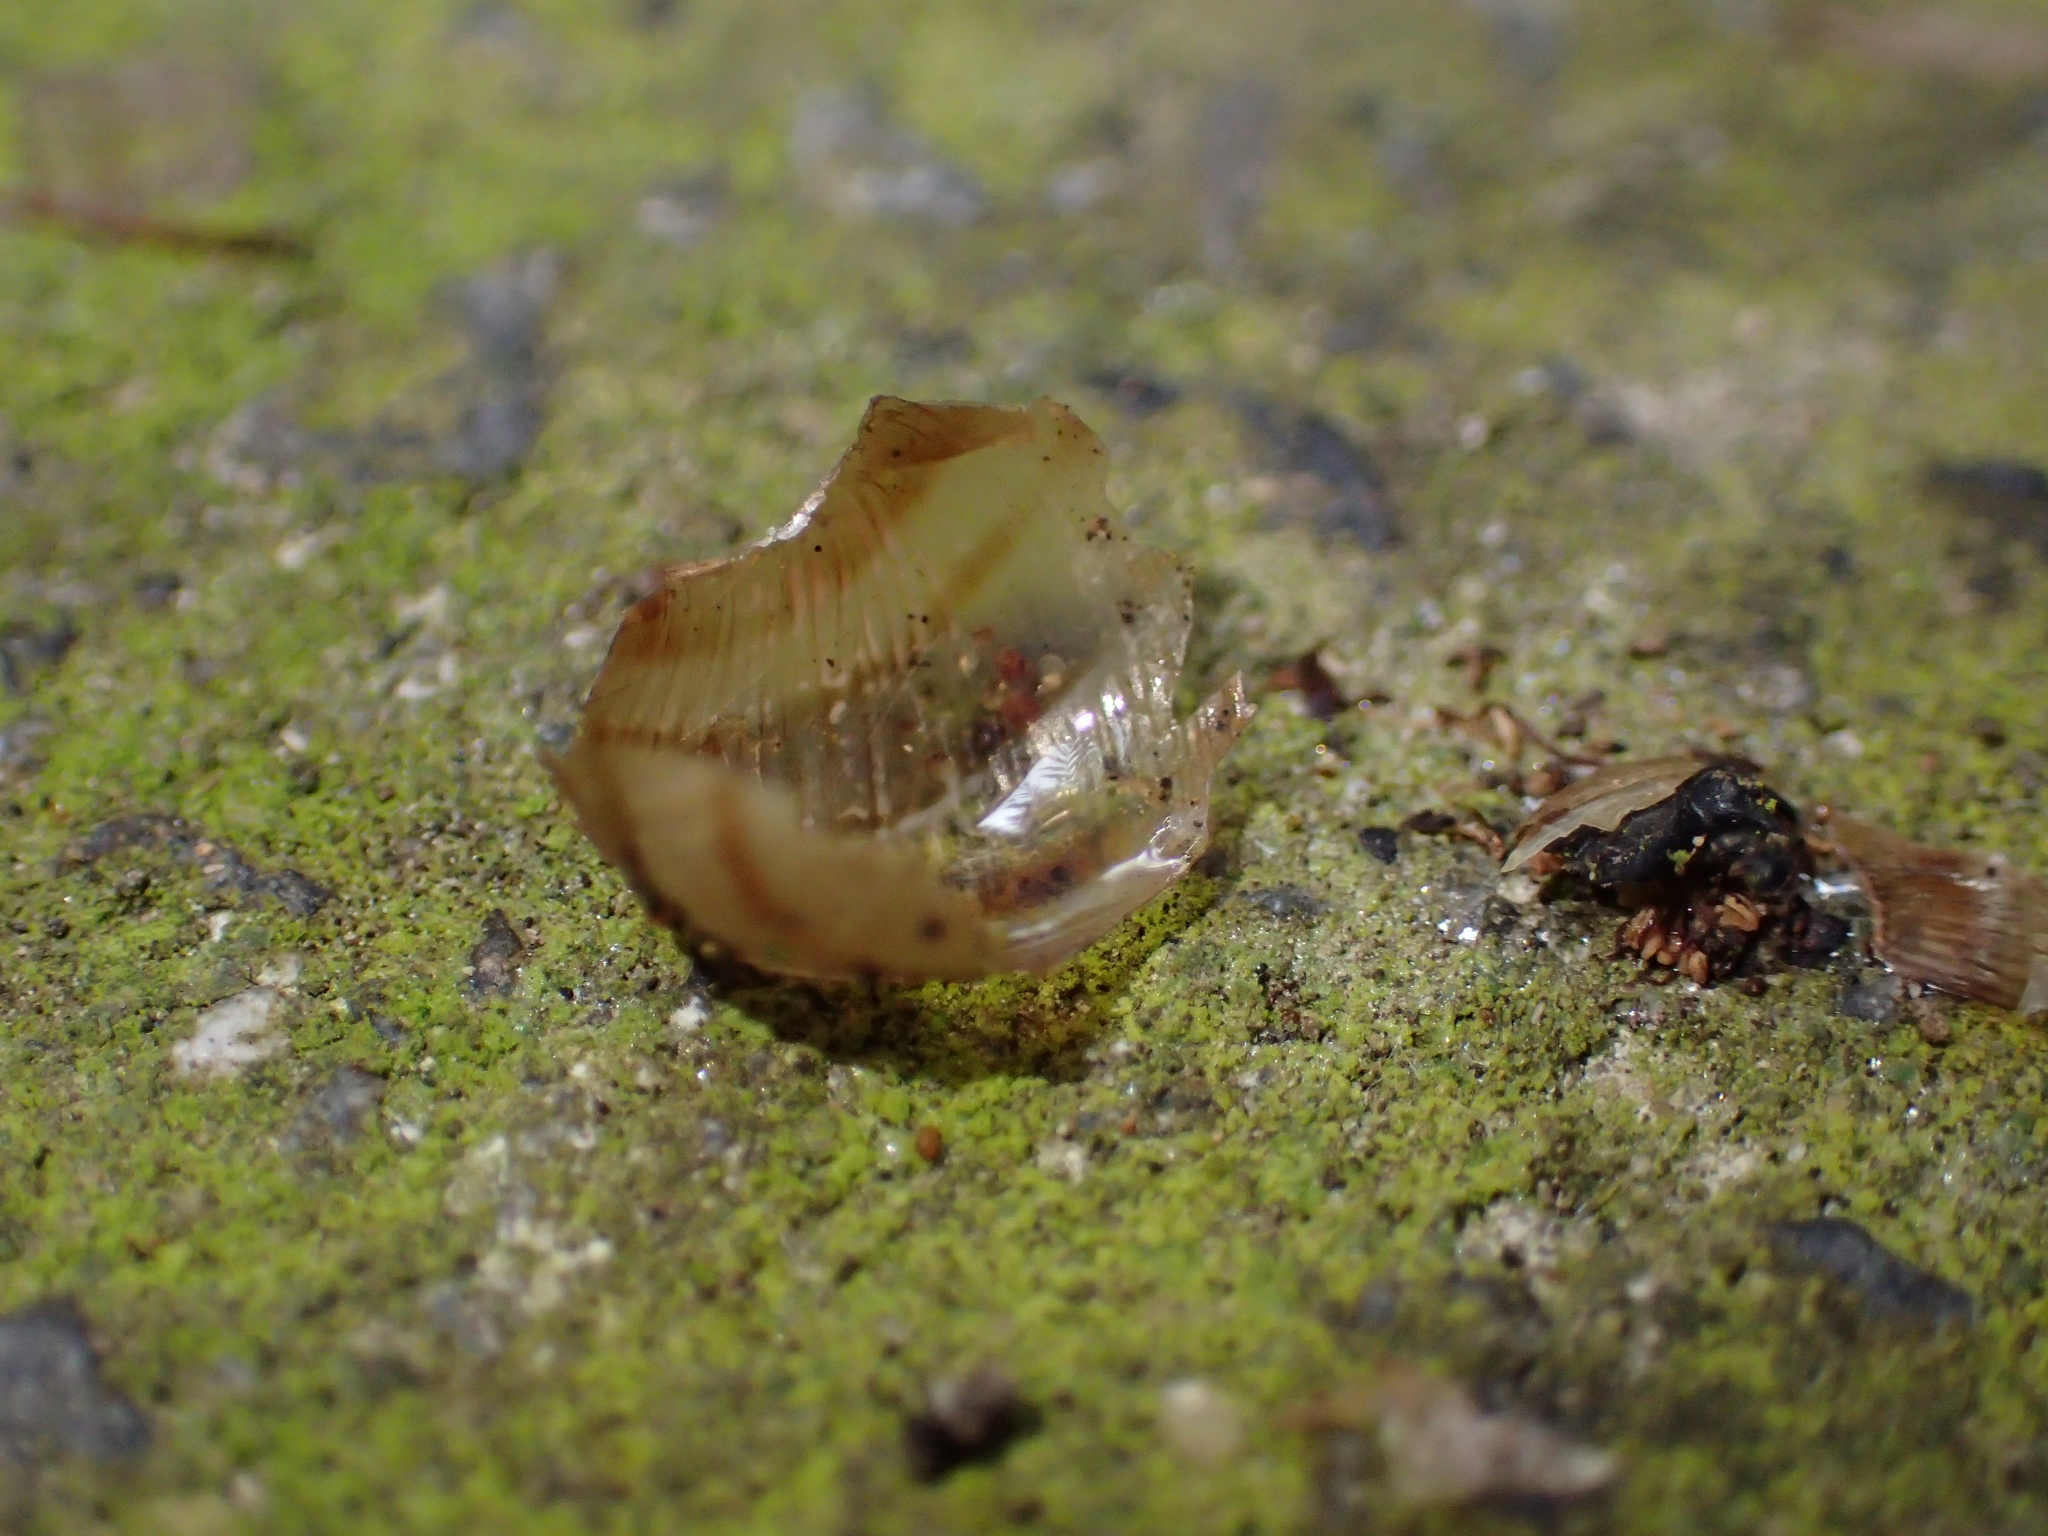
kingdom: Animalia
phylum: Mollusca
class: Gastropoda
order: Stylommatophora
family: Helicidae
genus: Cornu
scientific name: Cornu aspersum
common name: Brown garden snail
